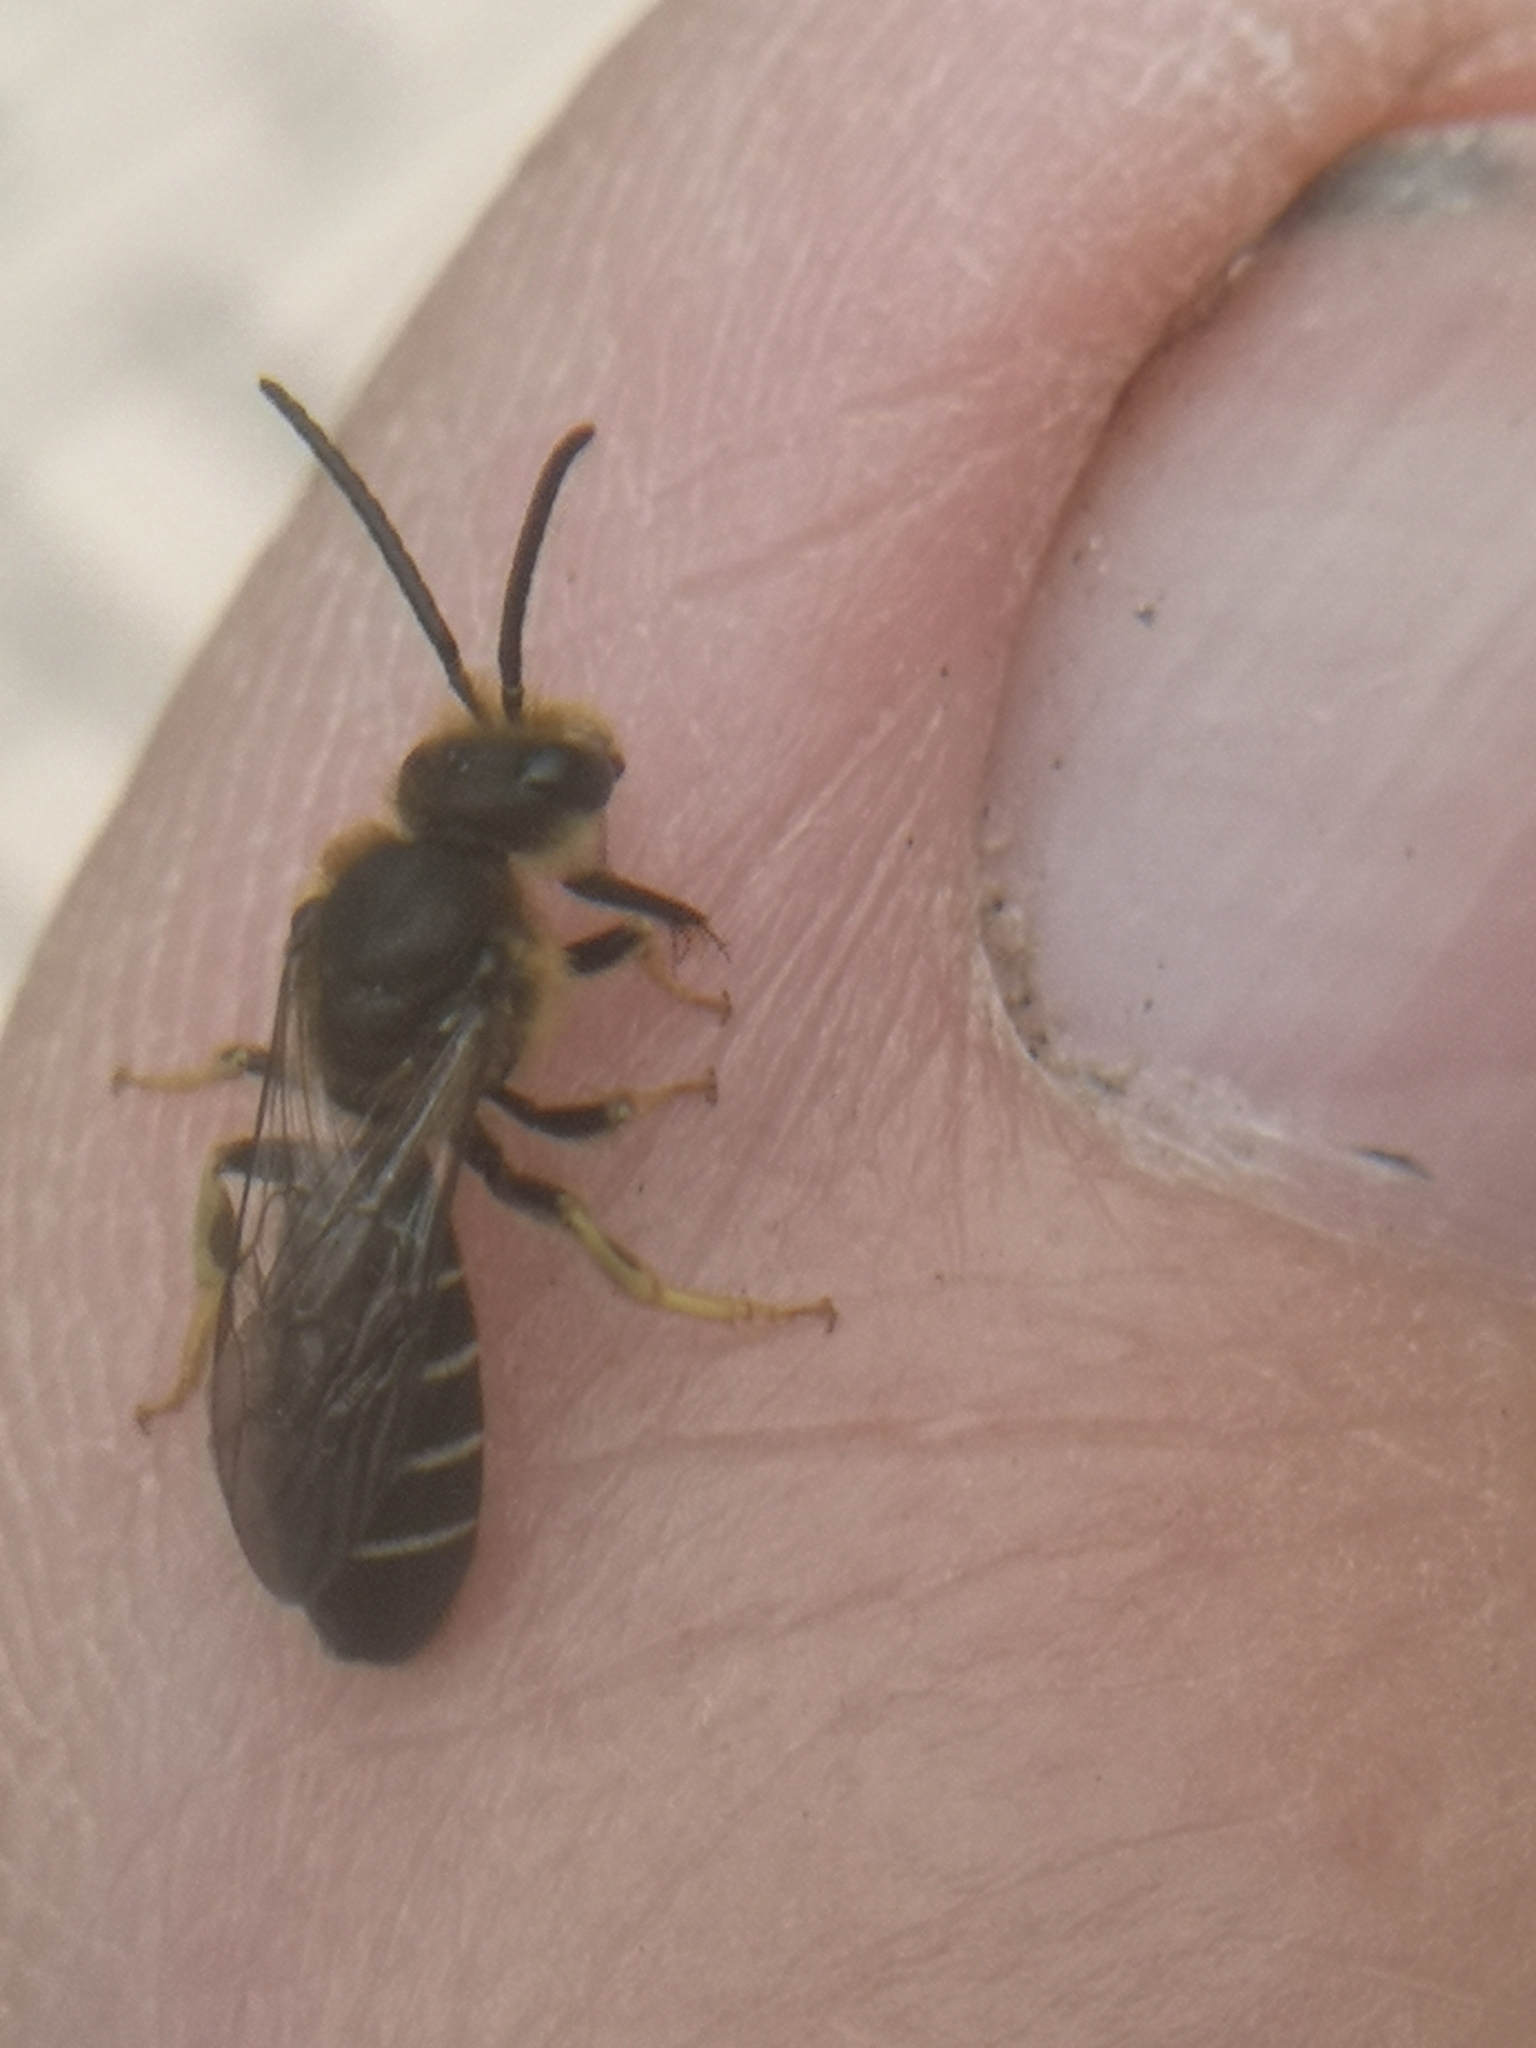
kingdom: Animalia
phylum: Arthropoda
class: Insecta
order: Hymenoptera
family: Halictidae
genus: Halictus
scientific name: Halictus rubicundus
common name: Orange-legged furrow bee
